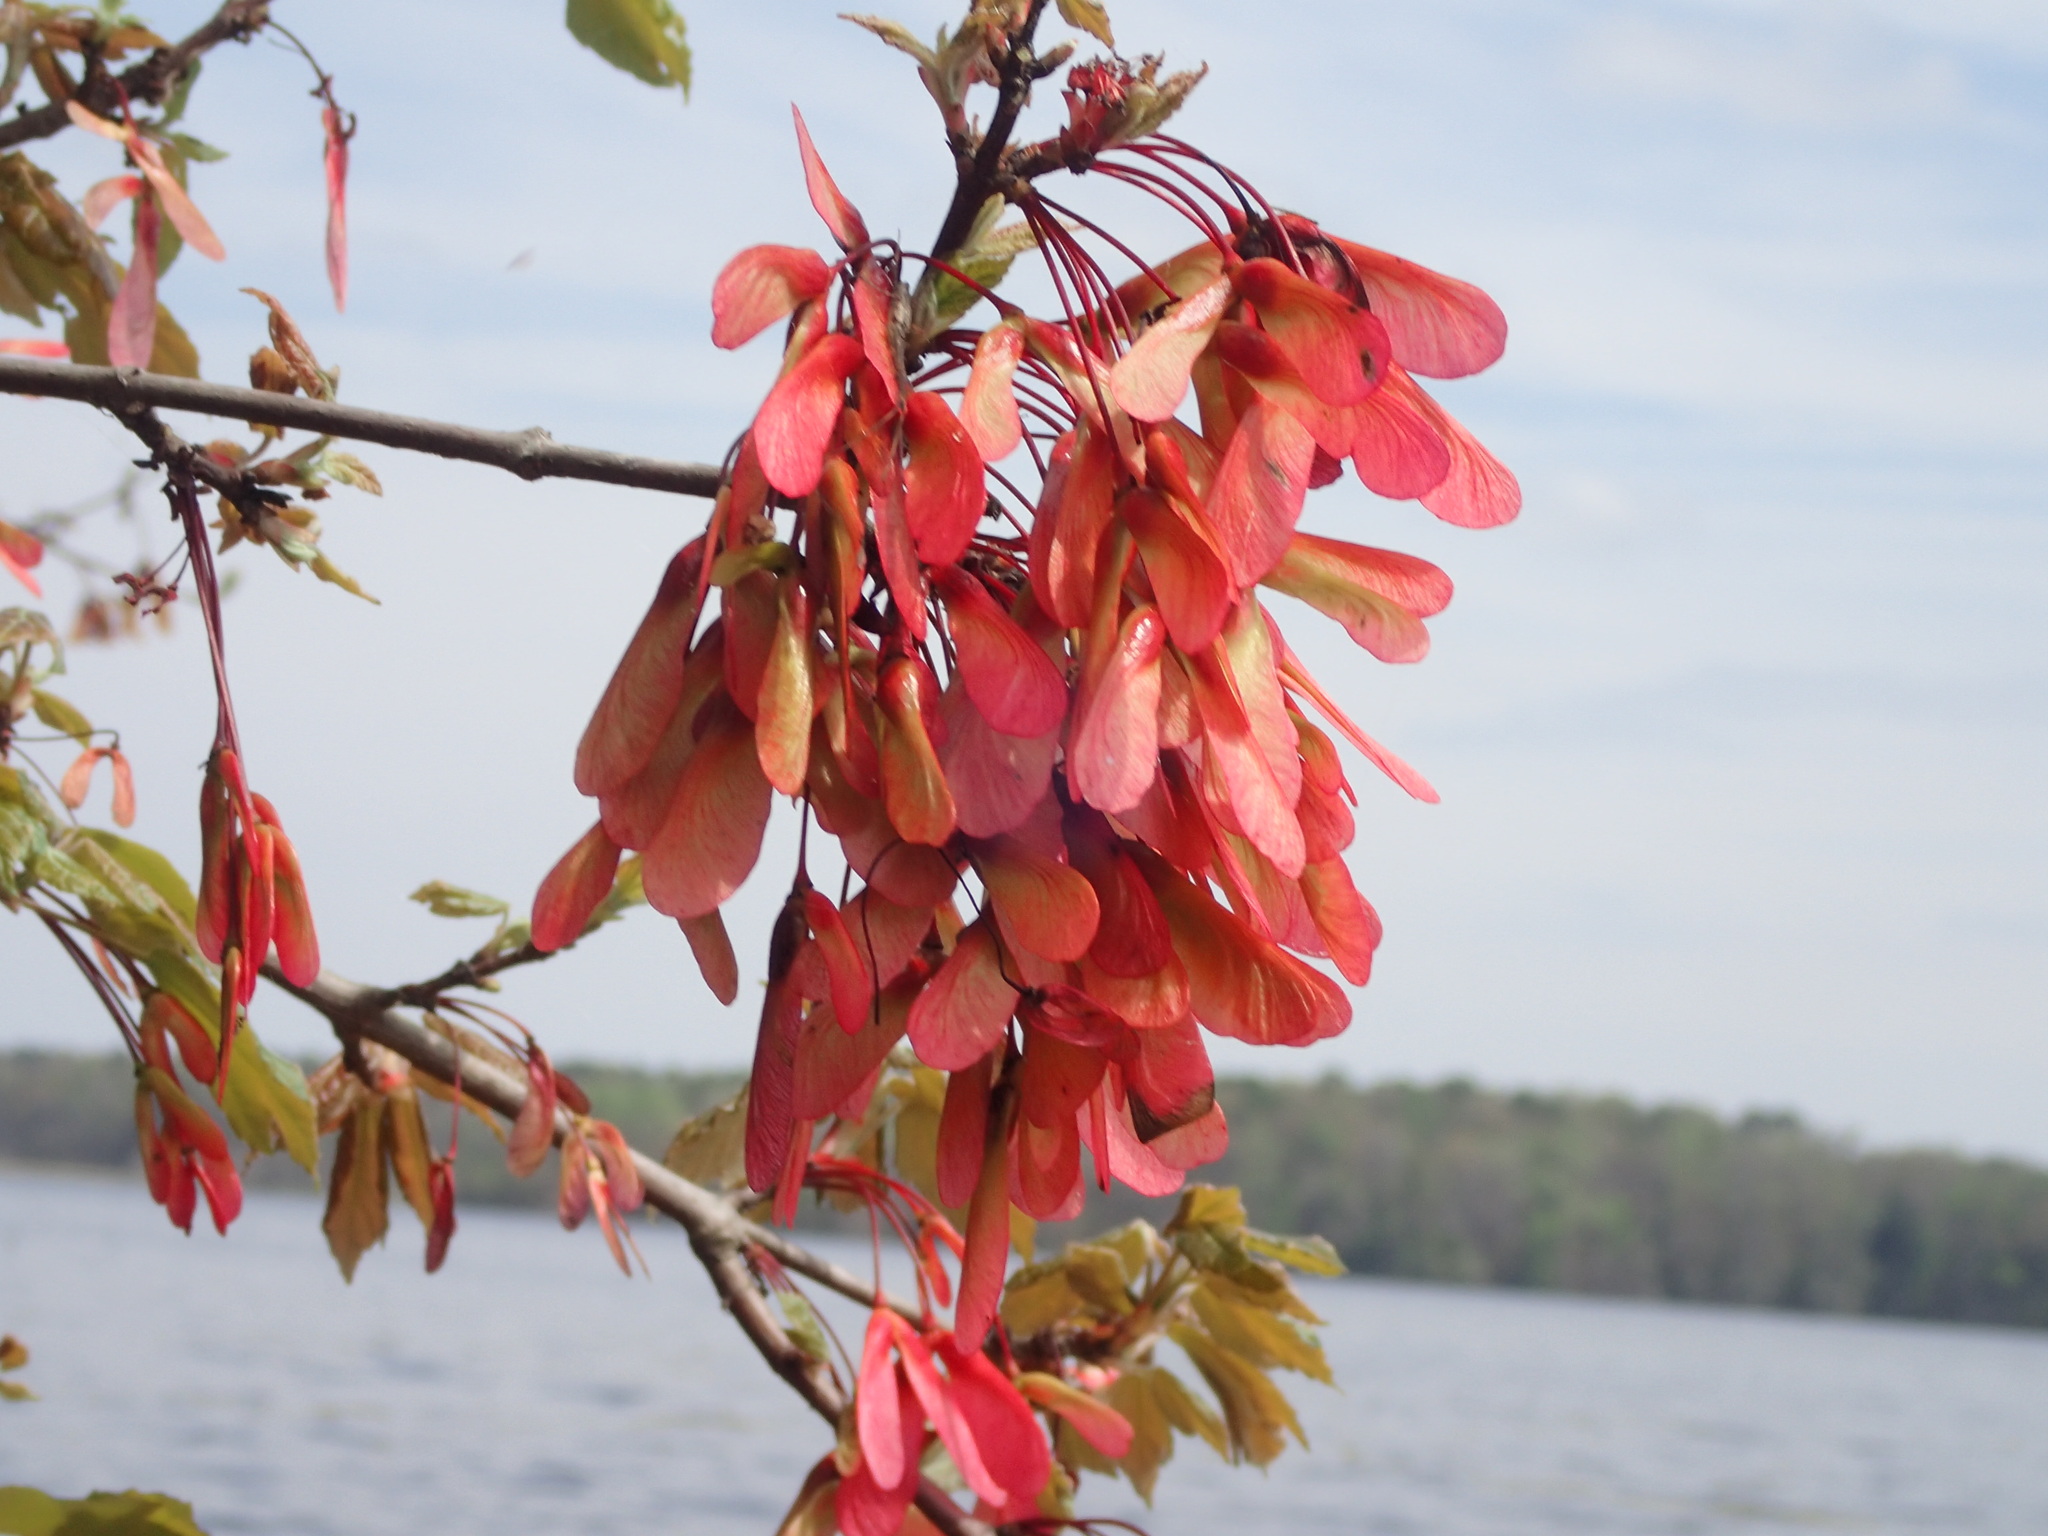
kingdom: Plantae
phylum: Tracheophyta
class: Magnoliopsida
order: Sapindales
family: Sapindaceae
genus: Acer
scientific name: Acer rubrum
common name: Red maple
